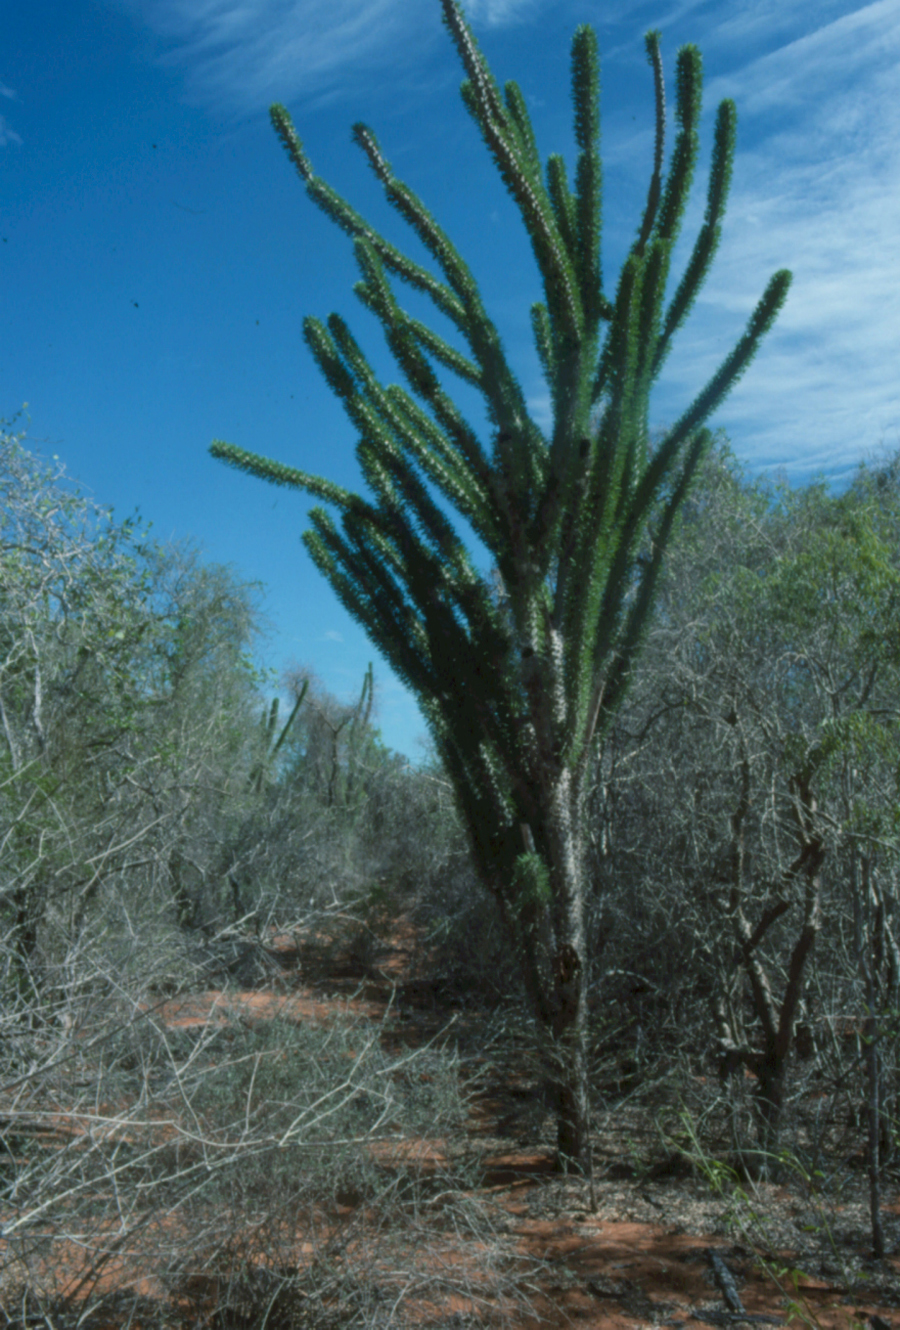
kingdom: Plantae
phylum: Tracheophyta
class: Magnoliopsida
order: Caryophyllales
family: Didiereaceae
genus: Didierea
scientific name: Didierea madagascariensis
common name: Octopus-tree
